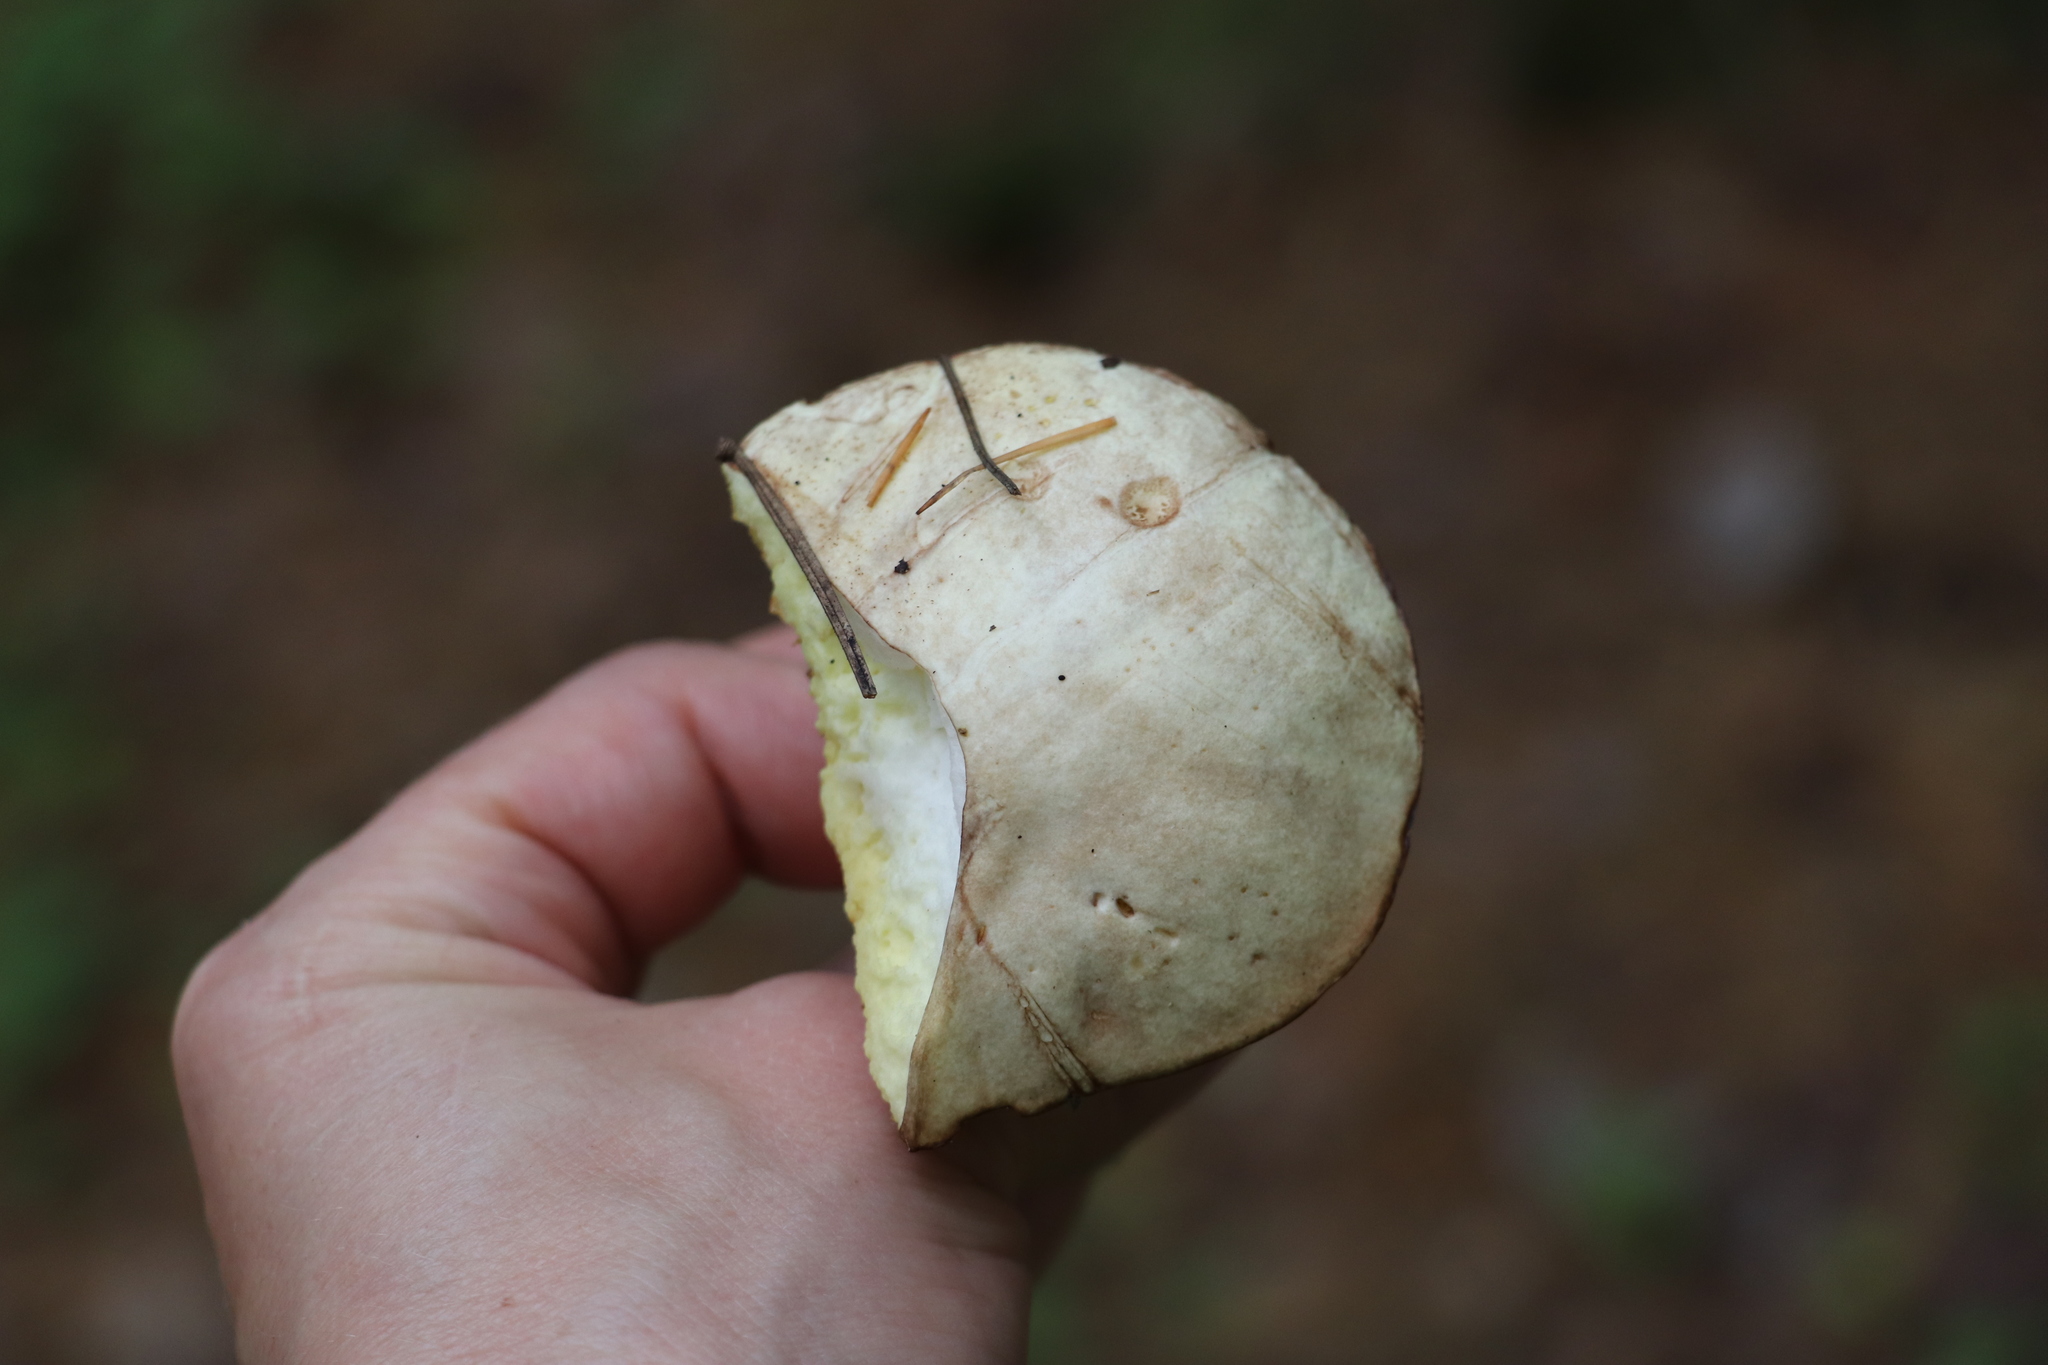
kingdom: Fungi
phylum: Basidiomycota
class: Agaricomycetes
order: Boletales
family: Suillaceae
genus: Suillus
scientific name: Suillus placidus
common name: Slippery white bolete
